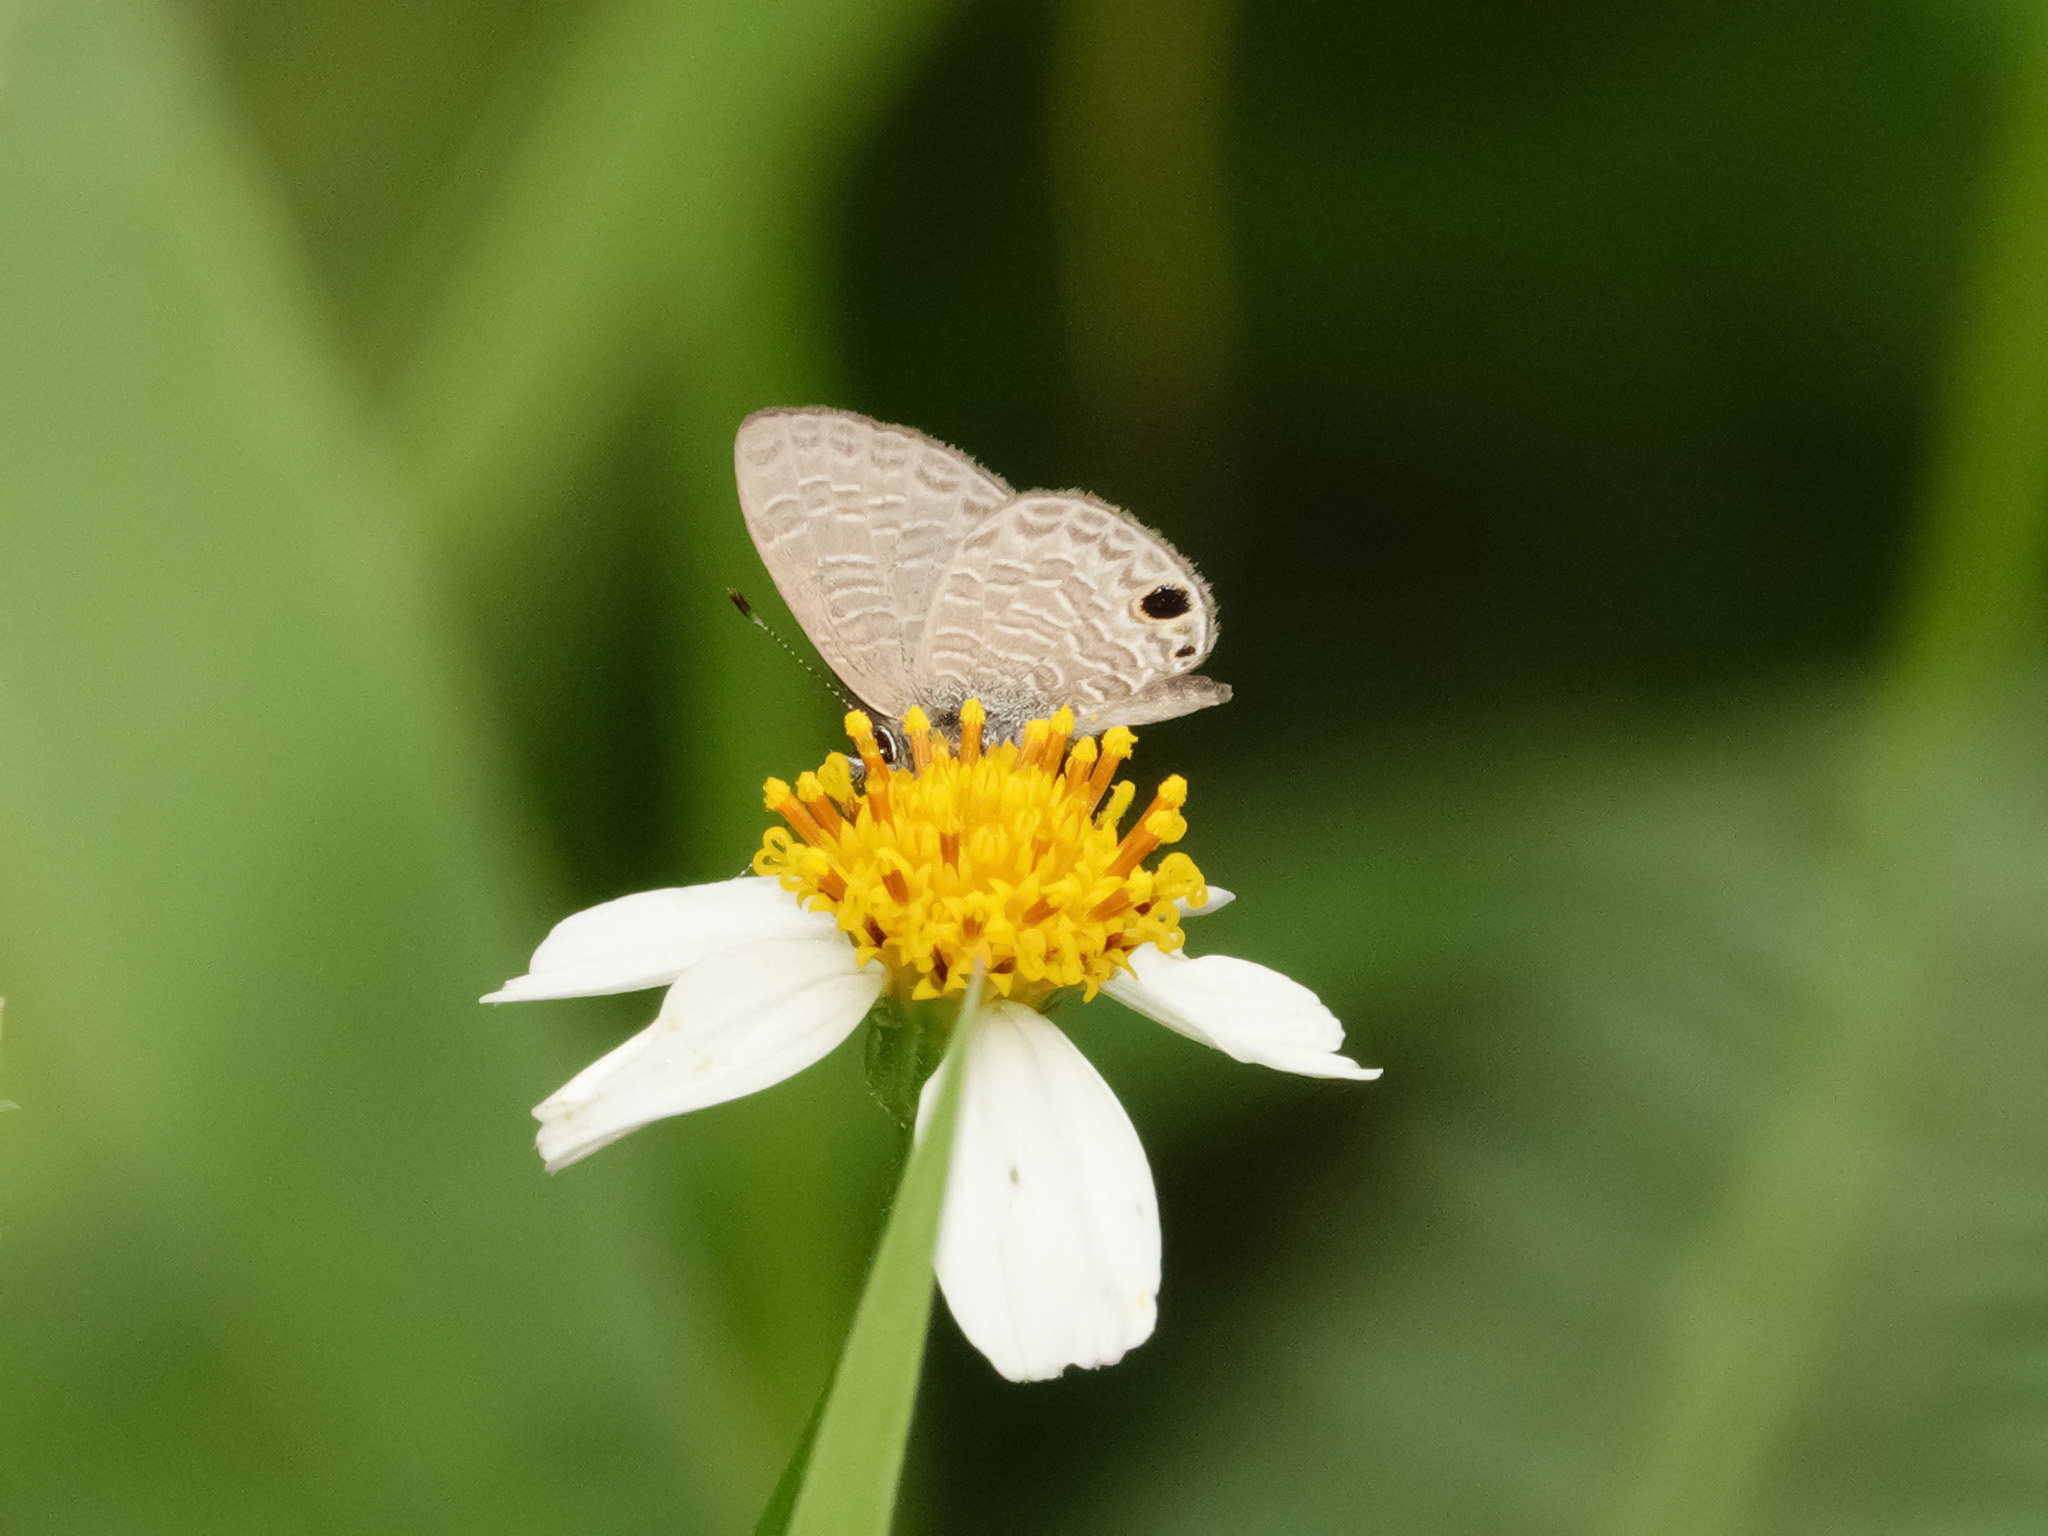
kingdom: Animalia
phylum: Arthropoda
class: Insecta
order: Lepidoptera
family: Lycaenidae
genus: Prosotas
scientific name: Prosotas dubiosa
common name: Tailless lineblue
